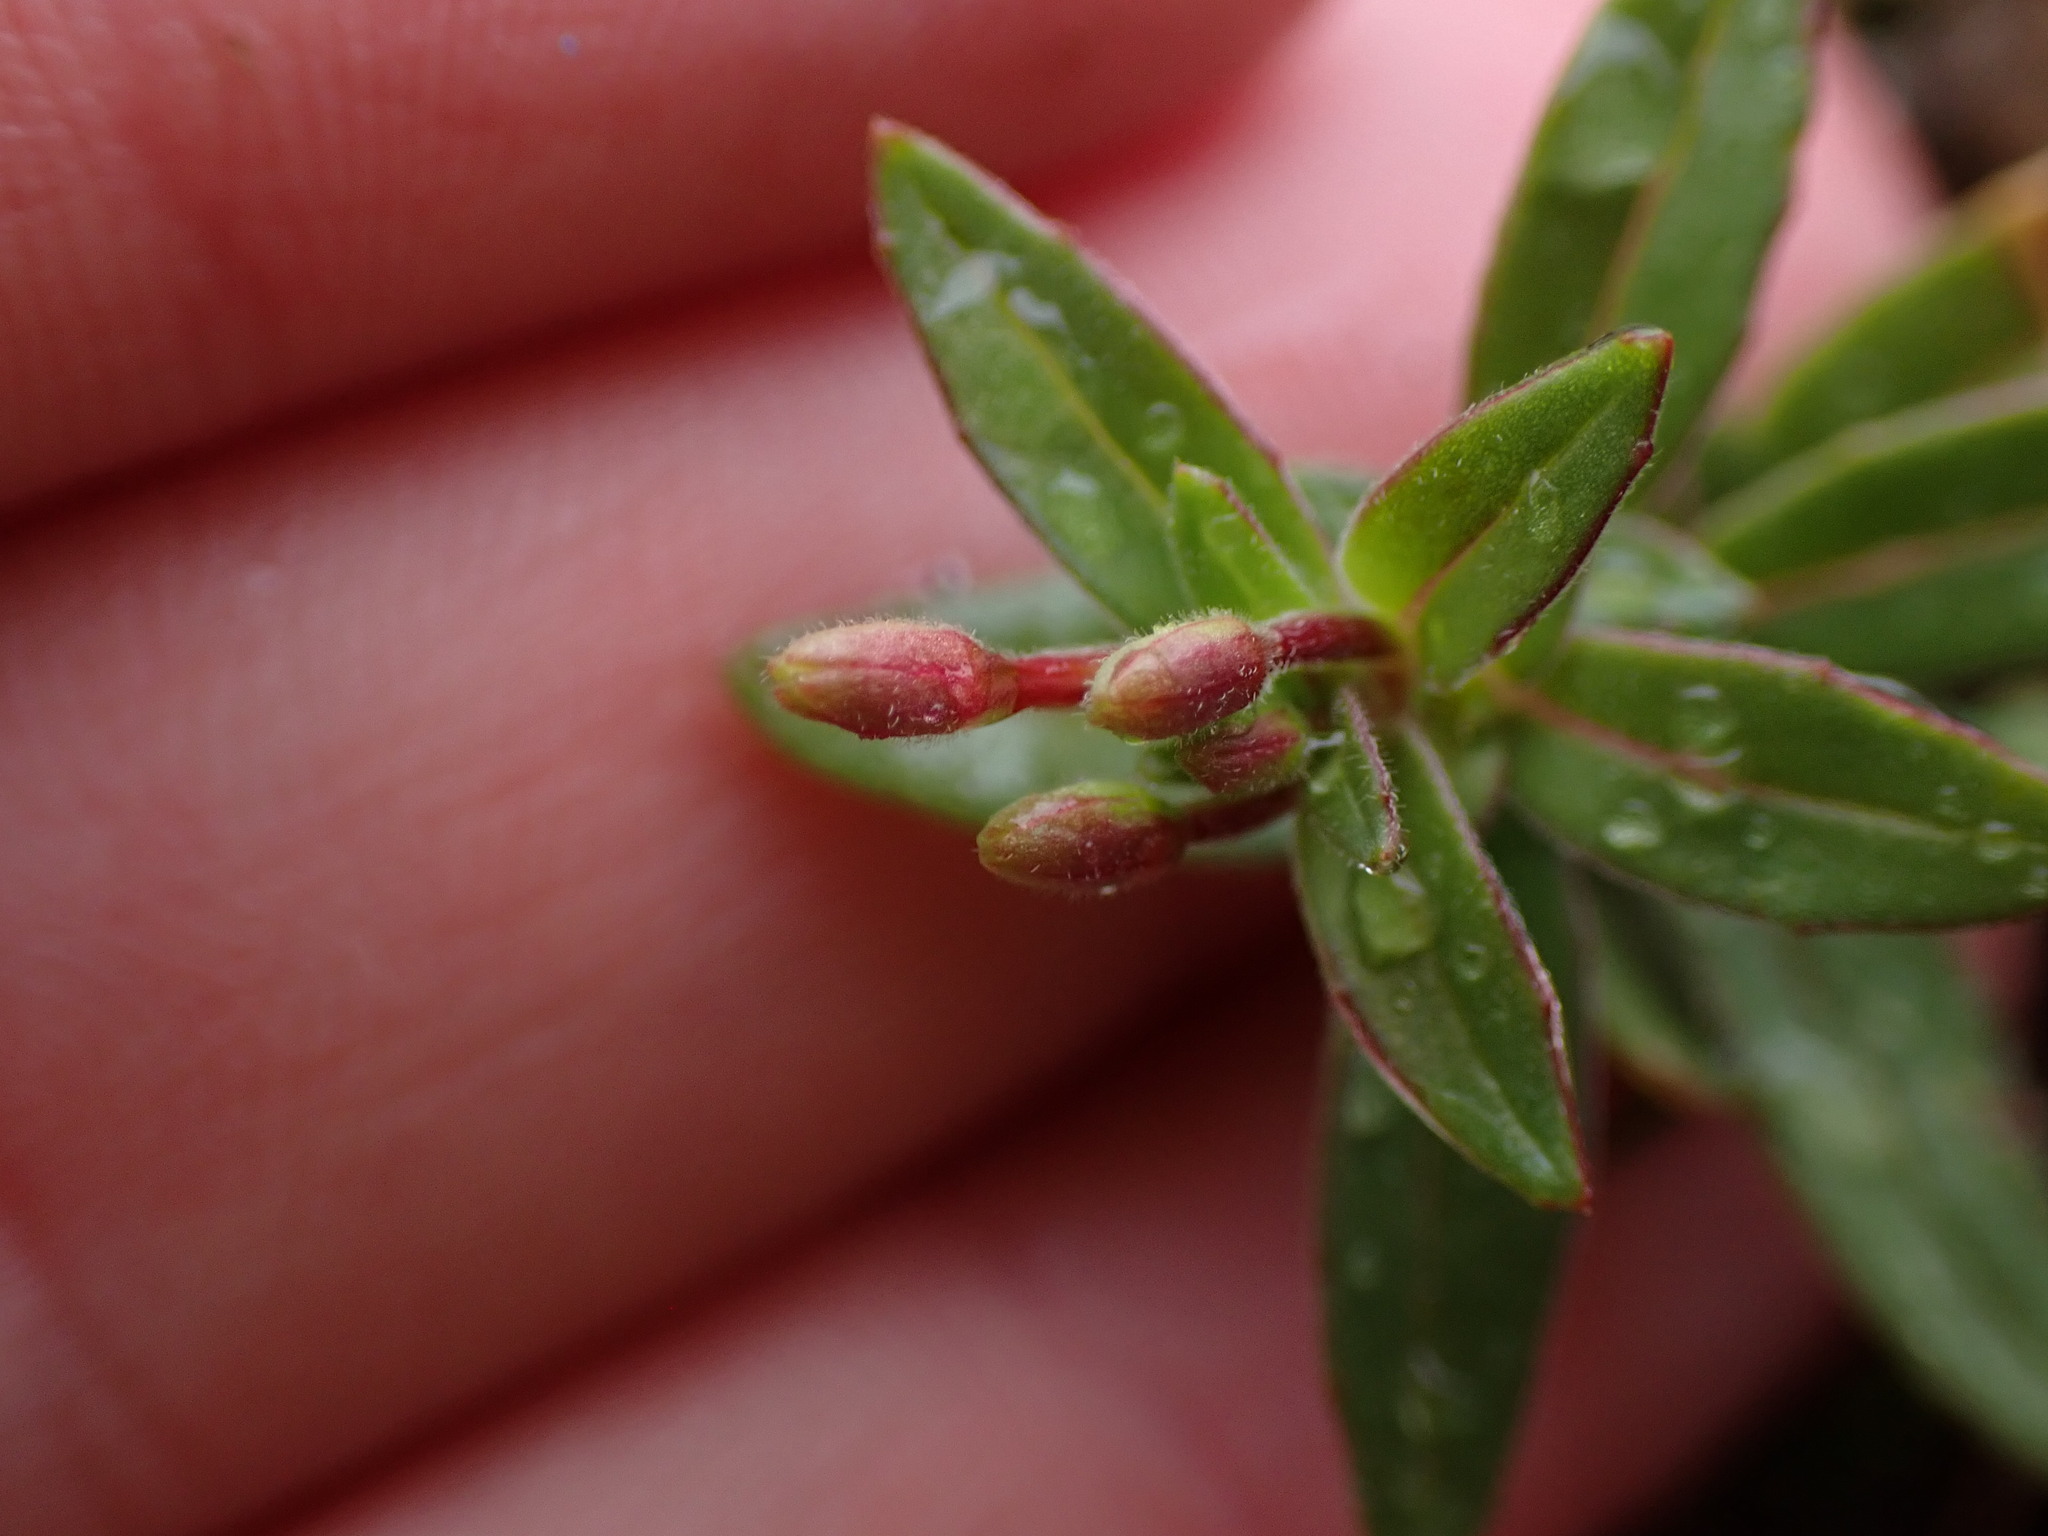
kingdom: Plantae
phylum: Tracheophyta
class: Magnoliopsida
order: Myrtales
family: Onagraceae
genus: Epilobium
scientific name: Epilobium minutum
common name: Chaparral willowherb
